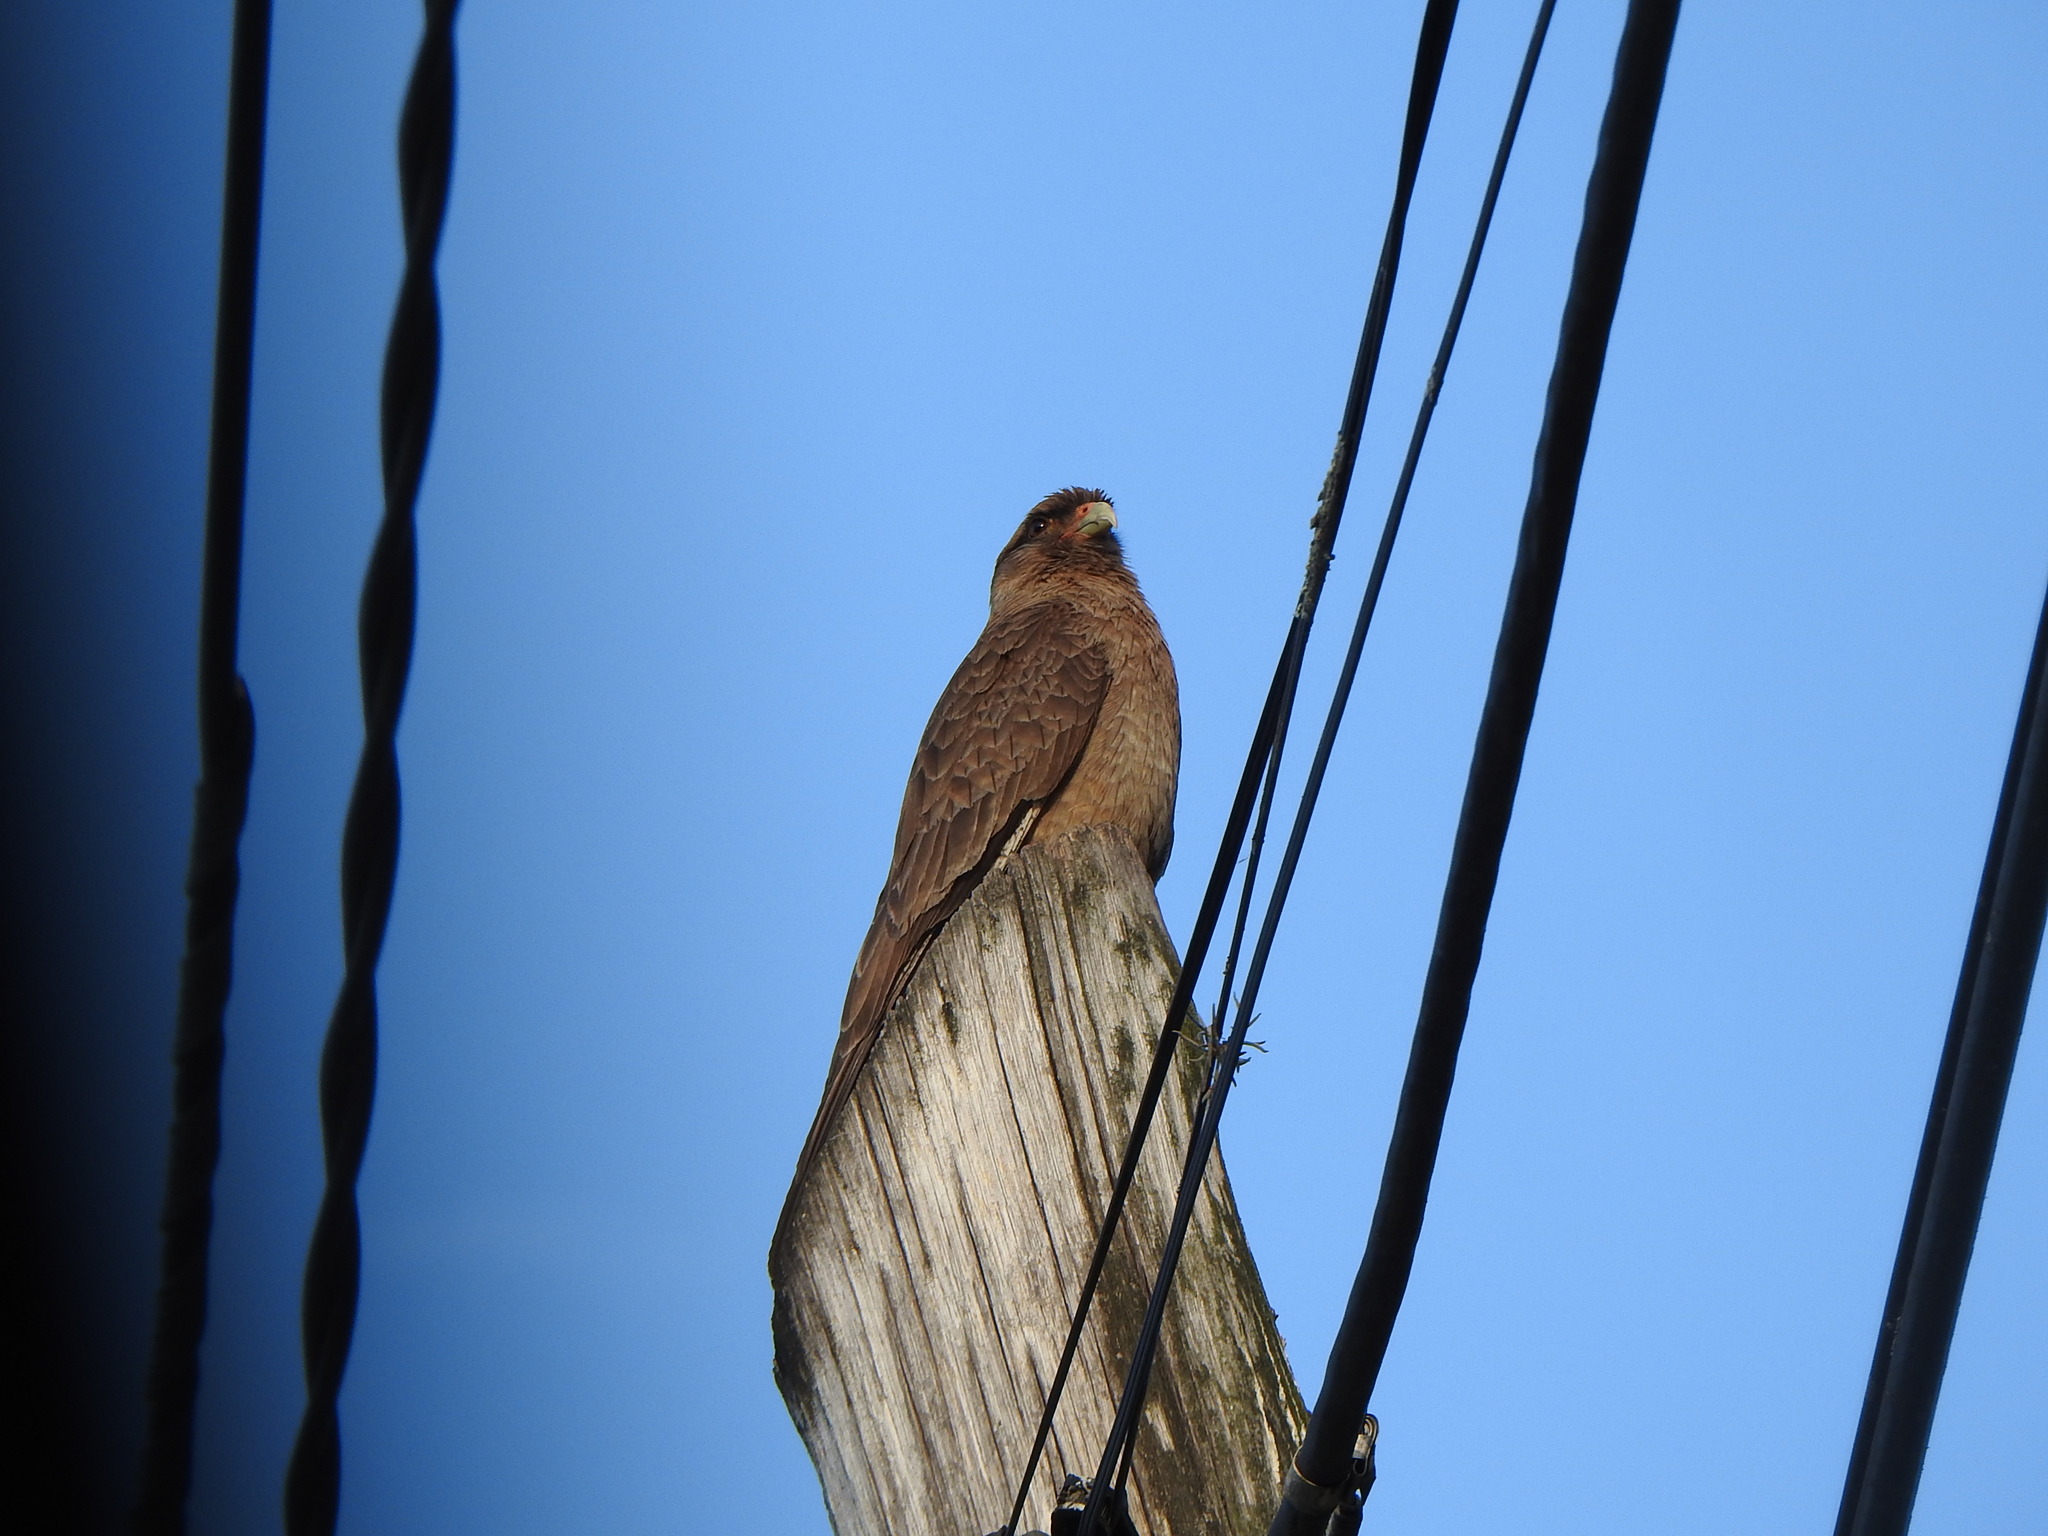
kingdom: Animalia
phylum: Chordata
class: Aves
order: Falconiformes
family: Falconidae
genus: Daptrius
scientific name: Daptrius
